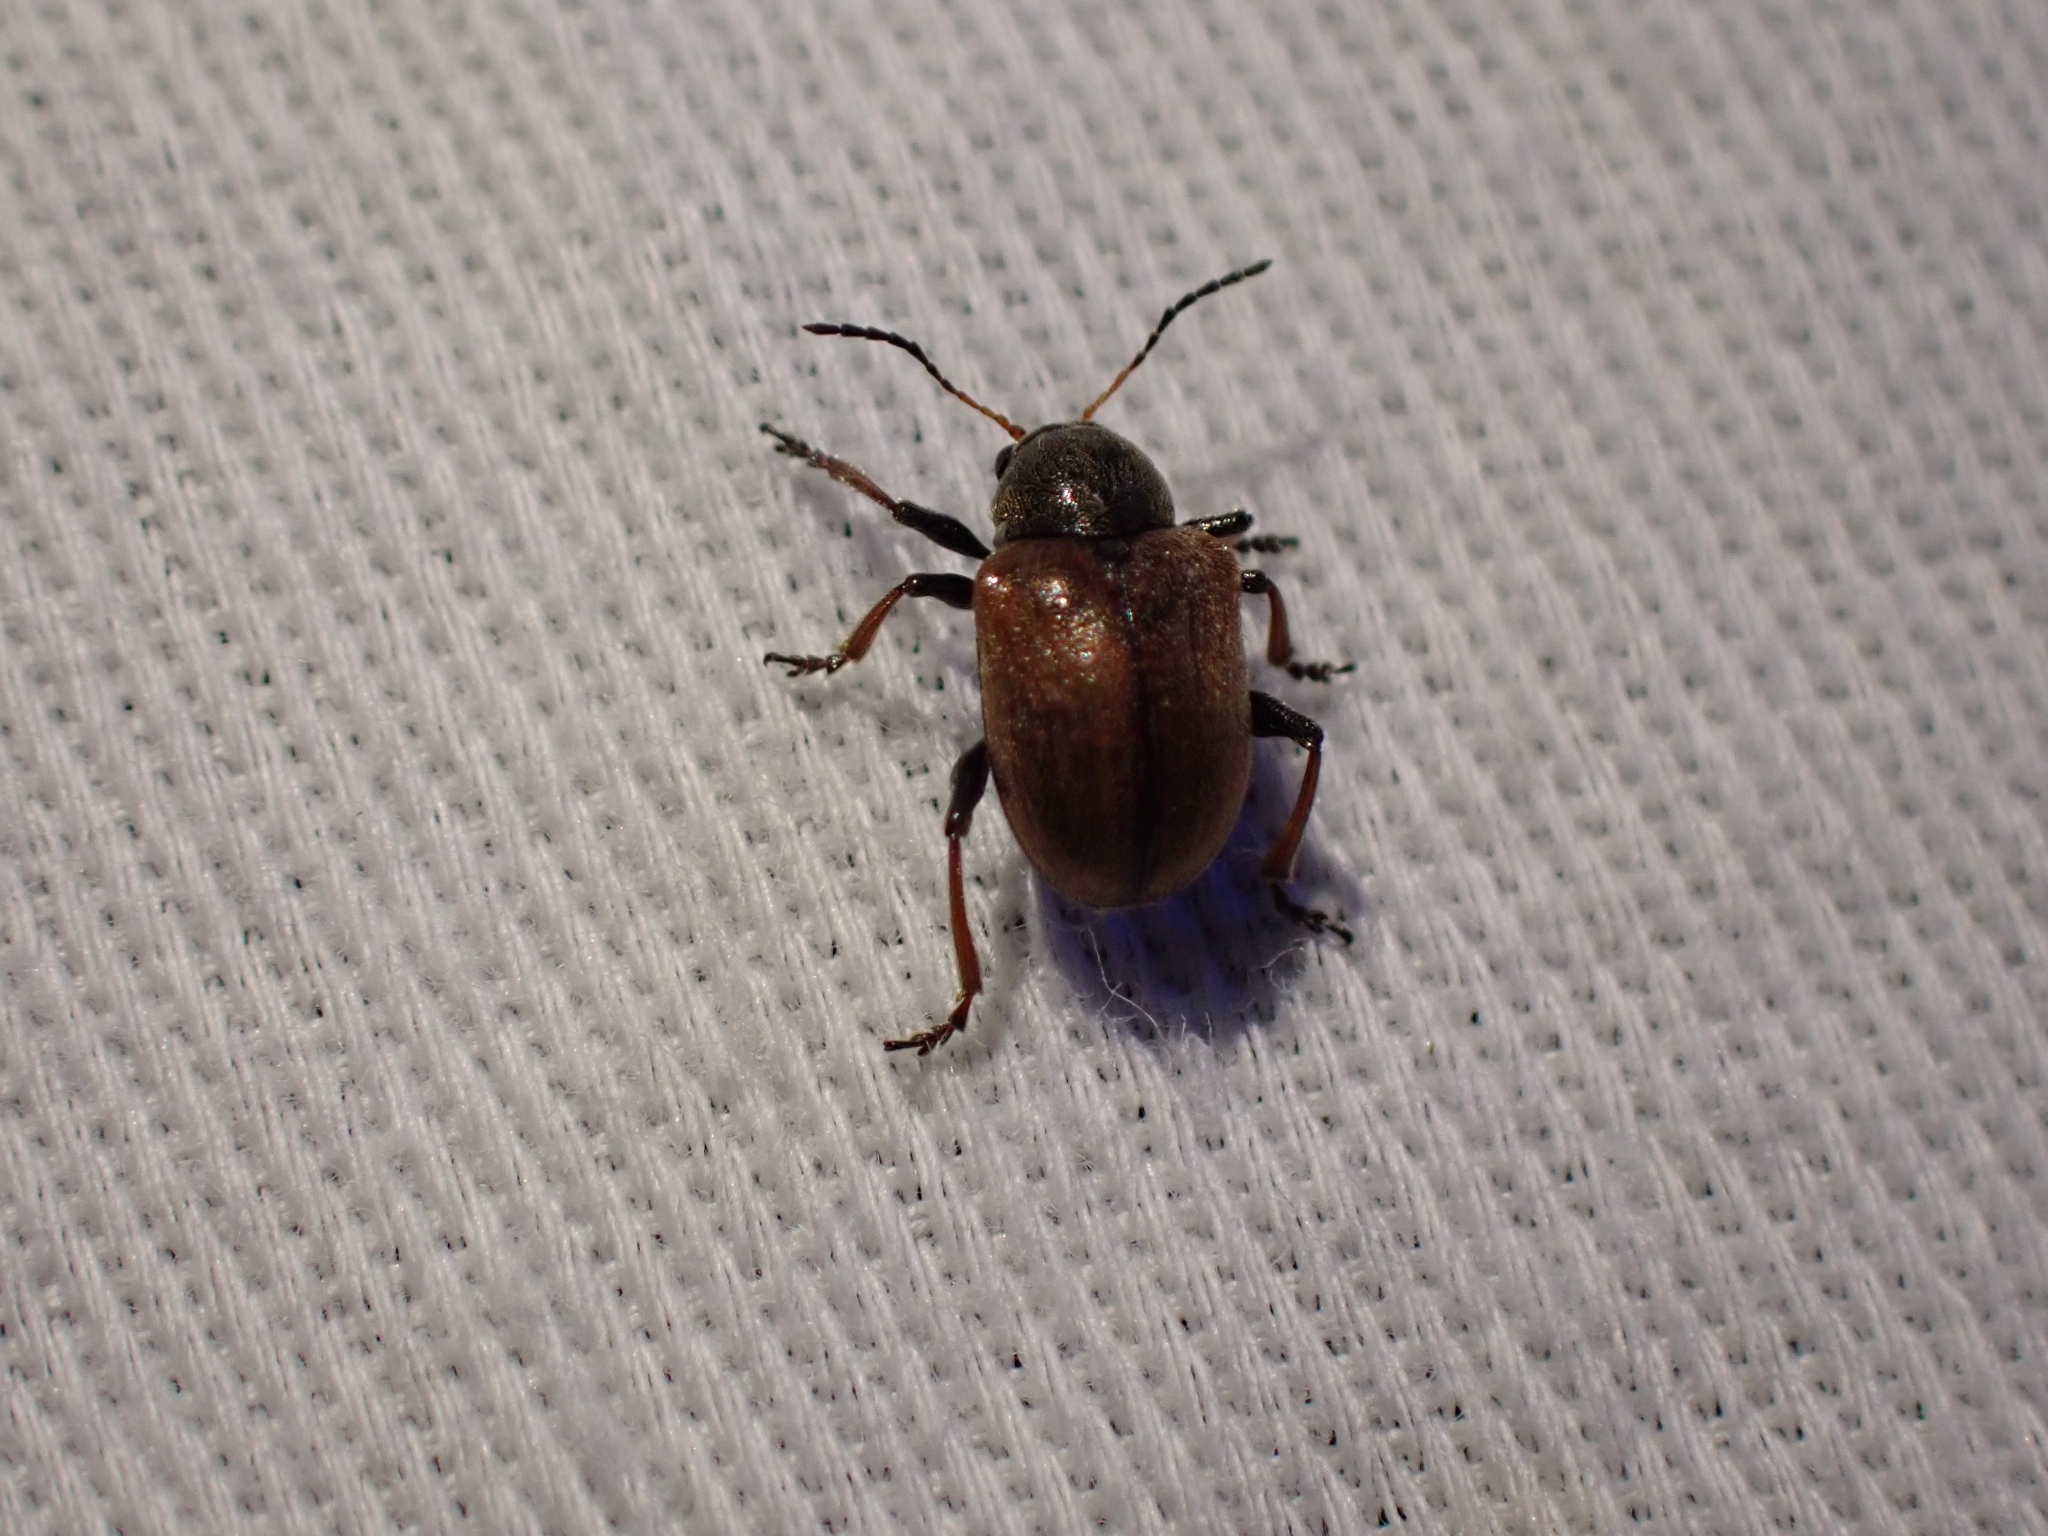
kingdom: Animalia
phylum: Arthropoda
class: Insecta
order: Coleoptera
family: Chrysomelidae
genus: Bromius
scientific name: Bromius obscurus
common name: Western grape rootworm
